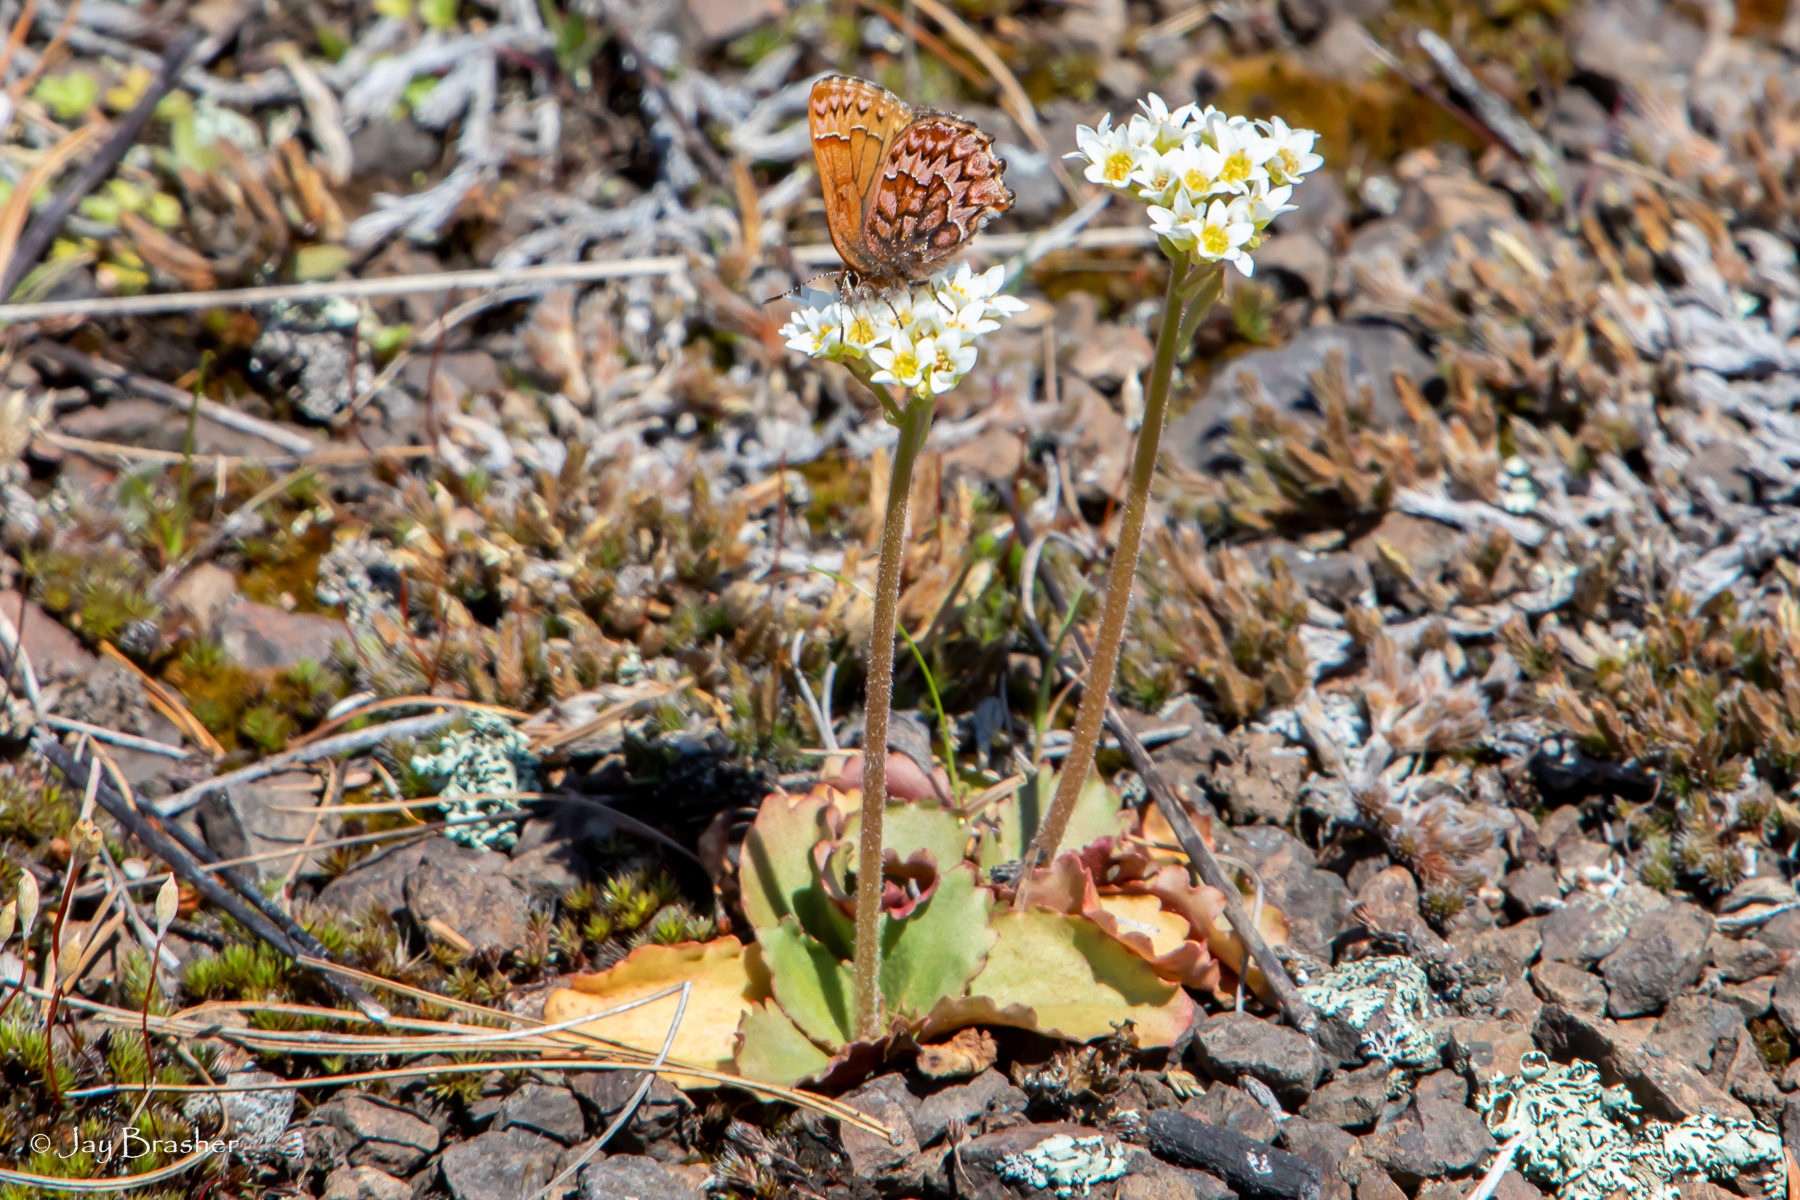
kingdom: Plantae
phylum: Tracheophyta
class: Magnoliopsida
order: Saxifragales
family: Saxifragaceae
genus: Micranthes
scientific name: Micranthes virginiensis
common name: Early saxifrage
